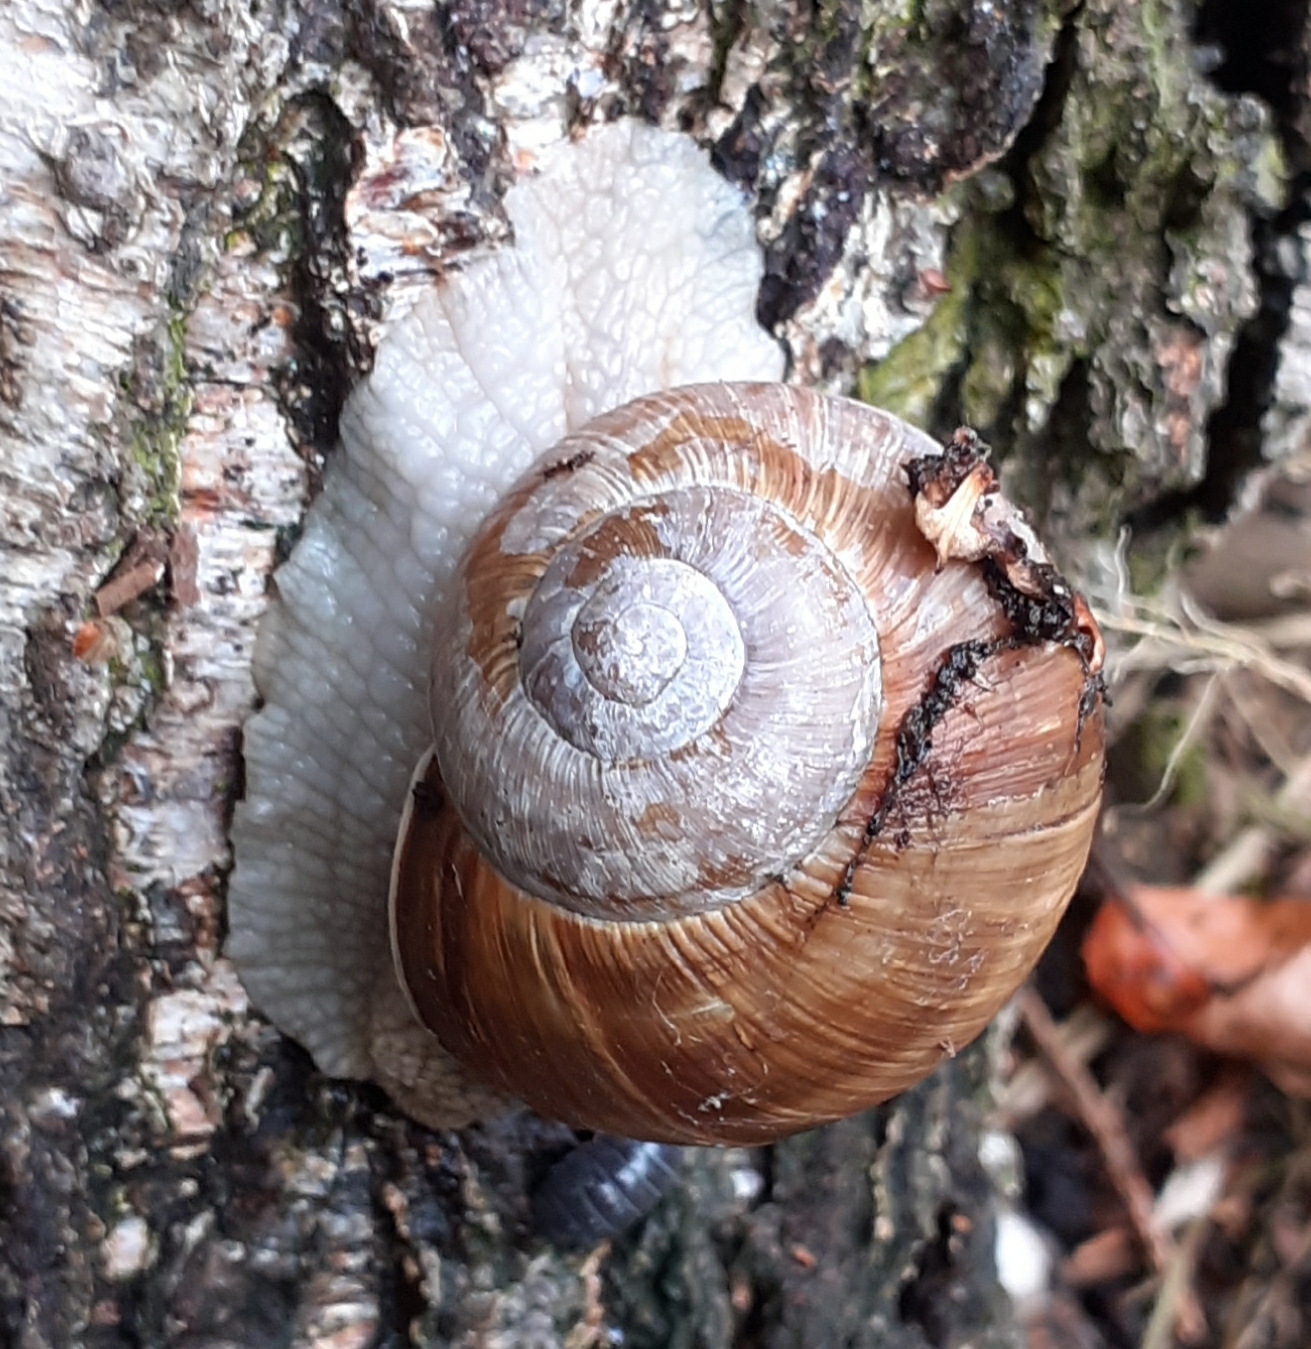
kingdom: Animalia
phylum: Mollusca
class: Gastropoda
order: Stylommatophora
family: Helicidae
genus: Helix
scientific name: Helix pomatia
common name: Roman snail
